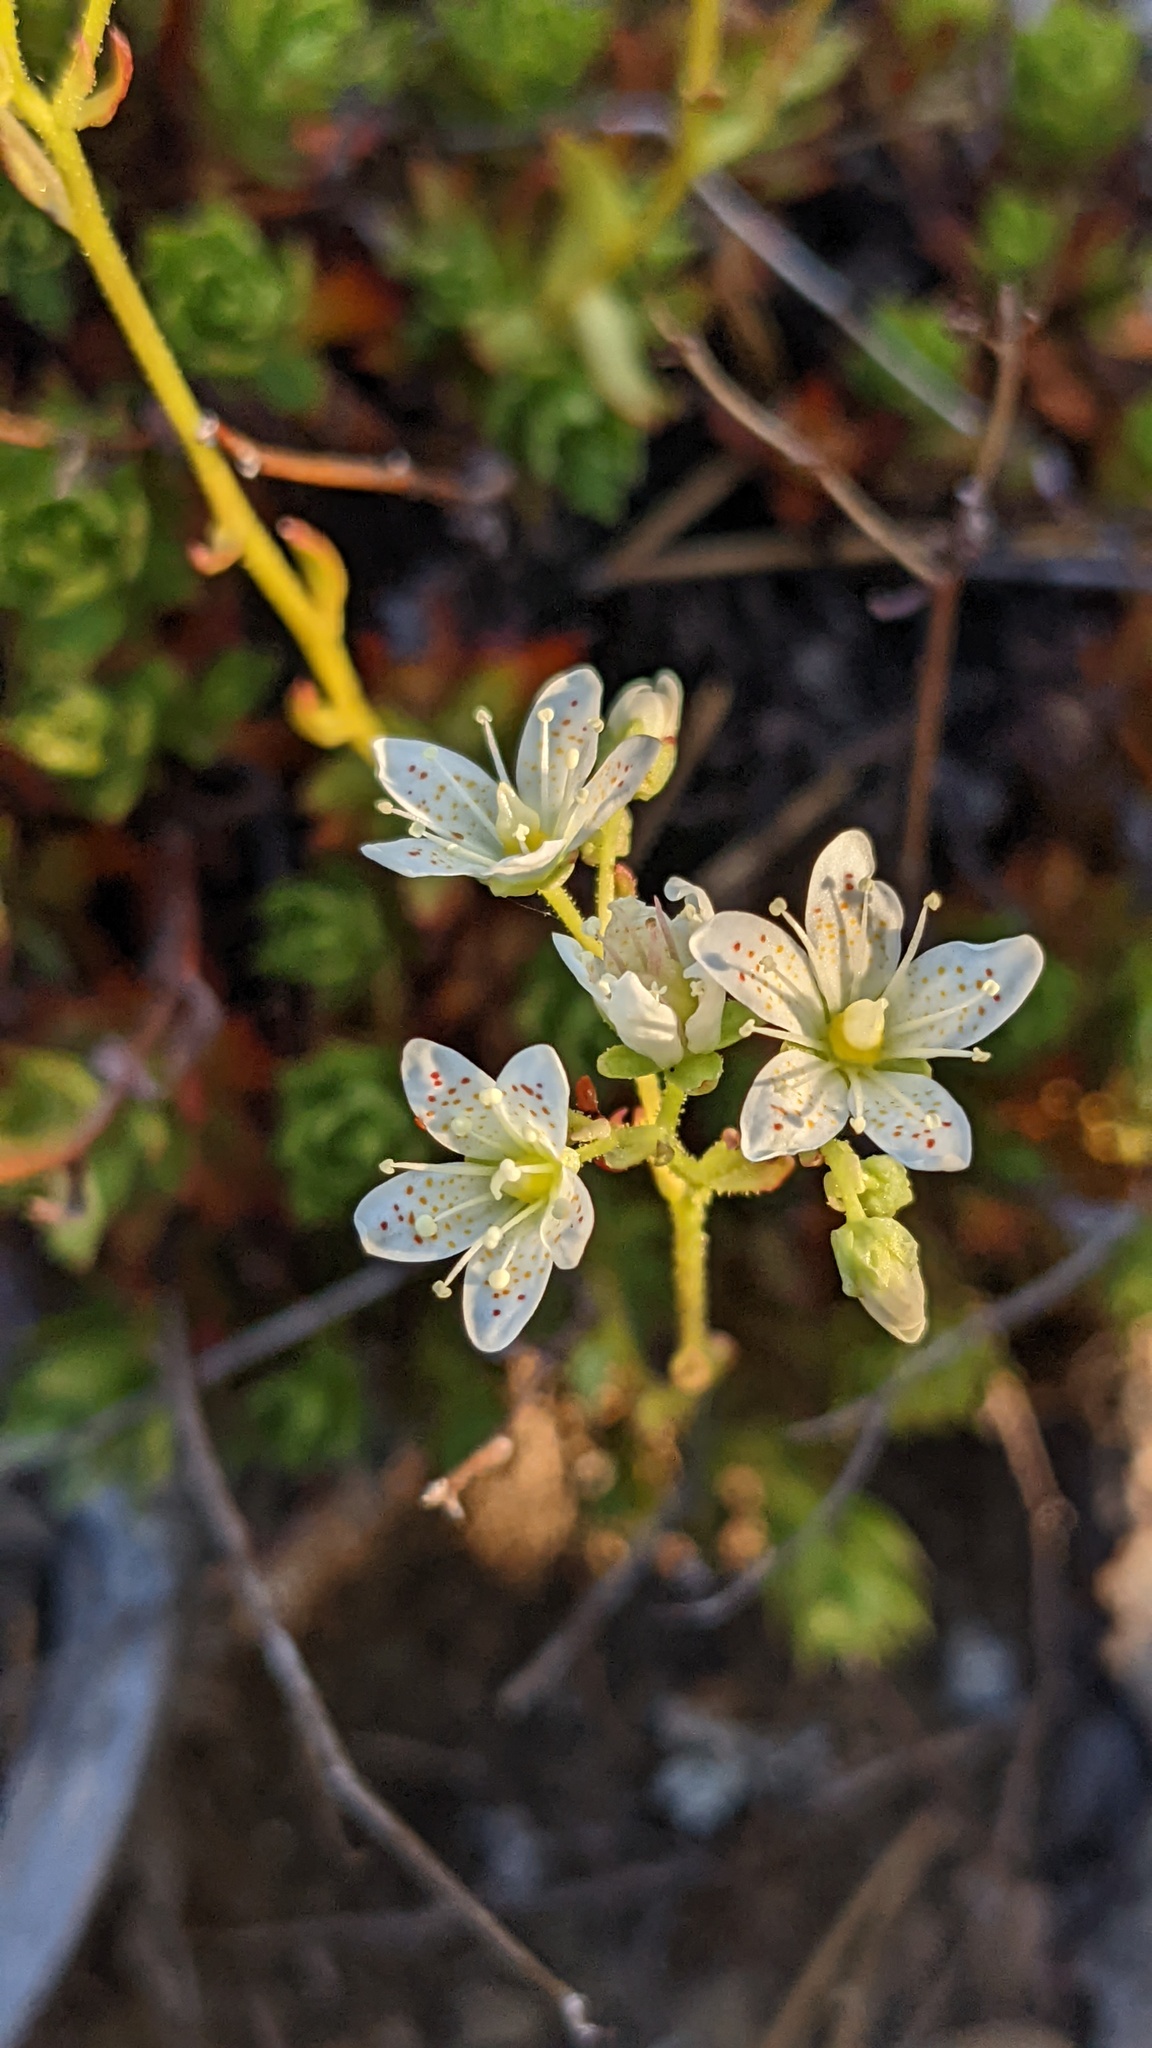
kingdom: Plantae
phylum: Tracheophyta
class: Magnoliopsida
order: Saxifragales
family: Saxifragaceae
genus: Saxifraga
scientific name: Saxifraga tricuspidata
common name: Prickly saxifrage
